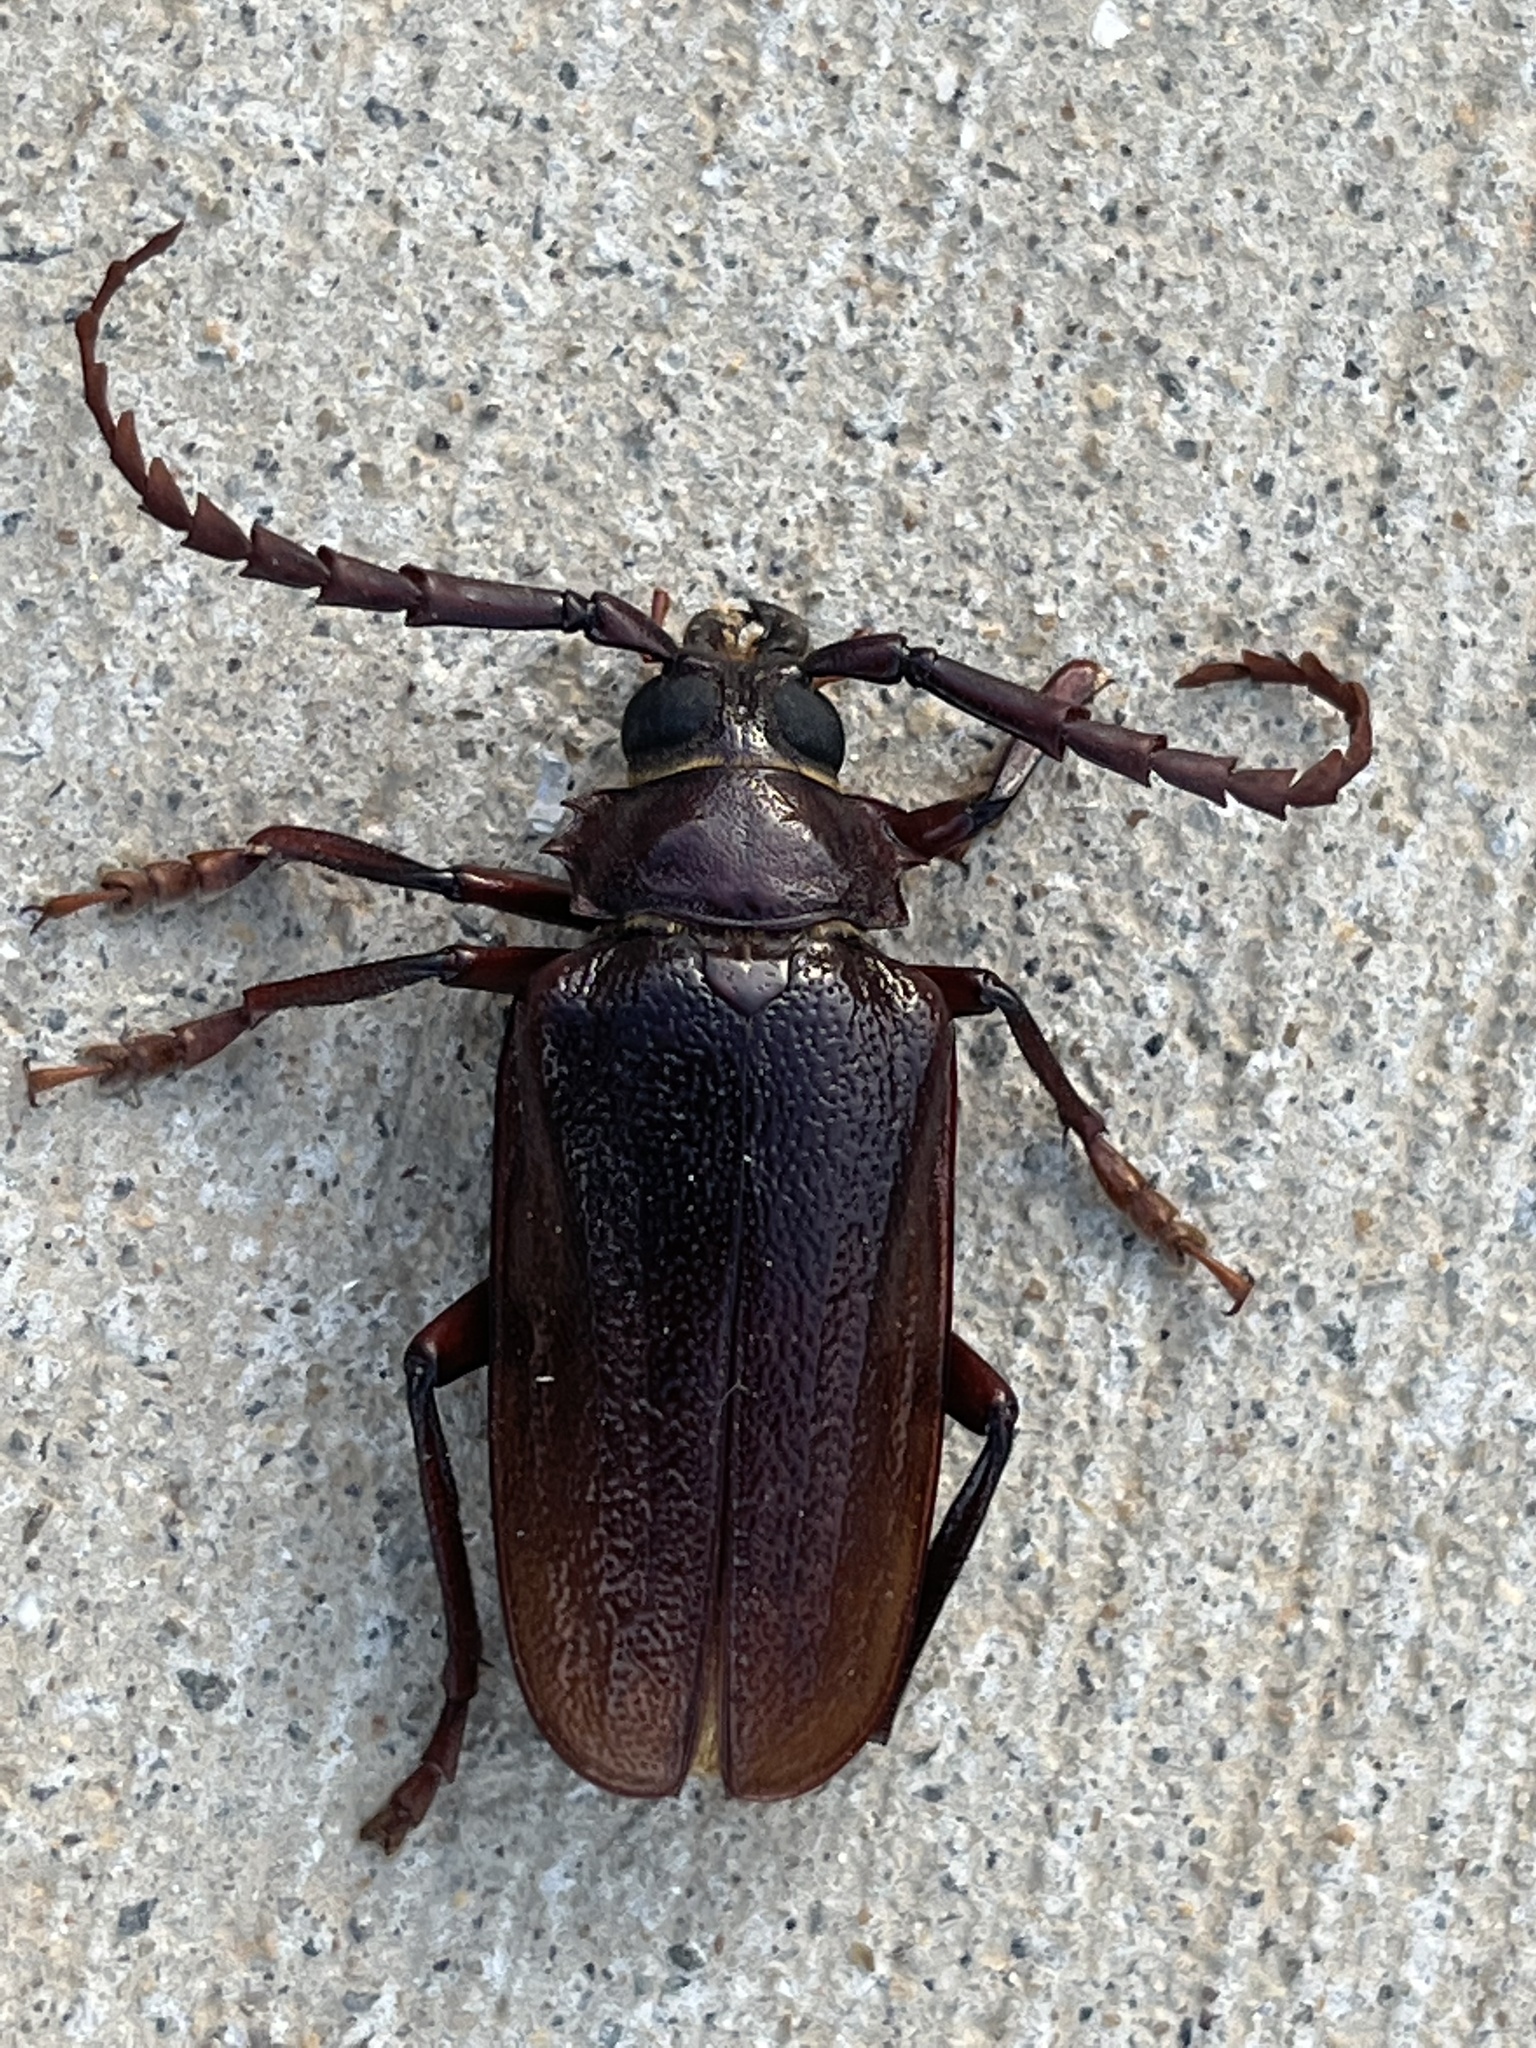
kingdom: Animalia
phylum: Arthropoda
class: Insecta
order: Coleoptera
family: Cerambycidae
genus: Prionus
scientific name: Prionus pocularis
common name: Tooth-necked longhorn beetle
